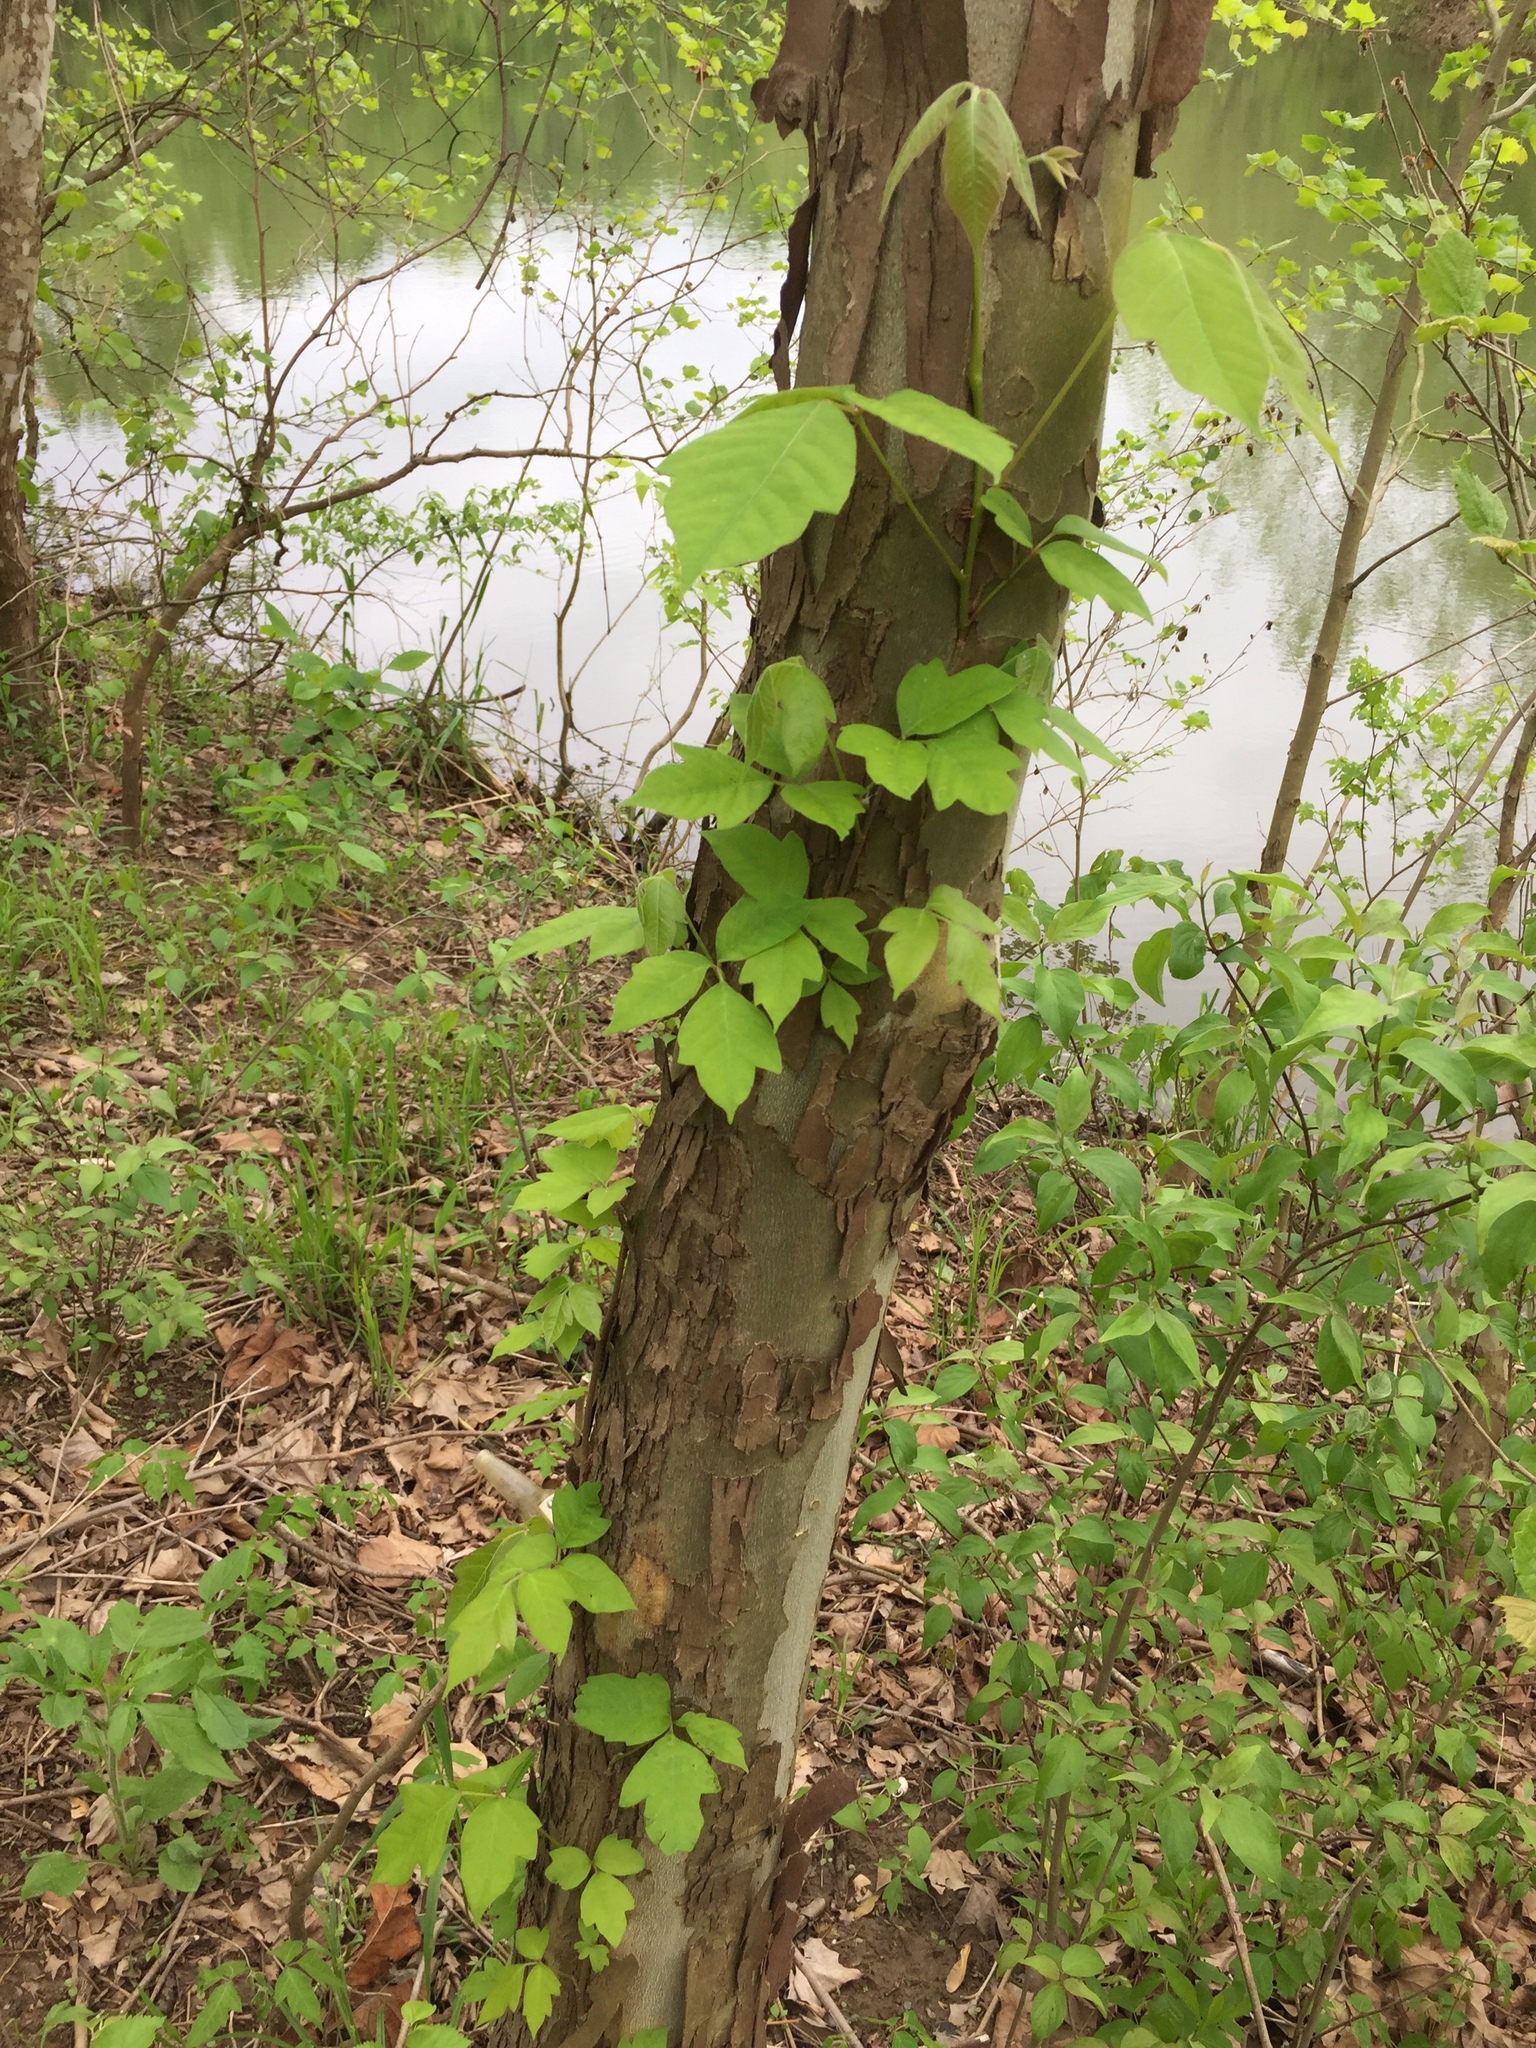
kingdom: Plantae
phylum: Tracheophyta
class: Magnoliopsida
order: Sapindales
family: Anacardiaceae
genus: Toxicodendron
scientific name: Toxicodendron radicans
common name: Poison ivy
